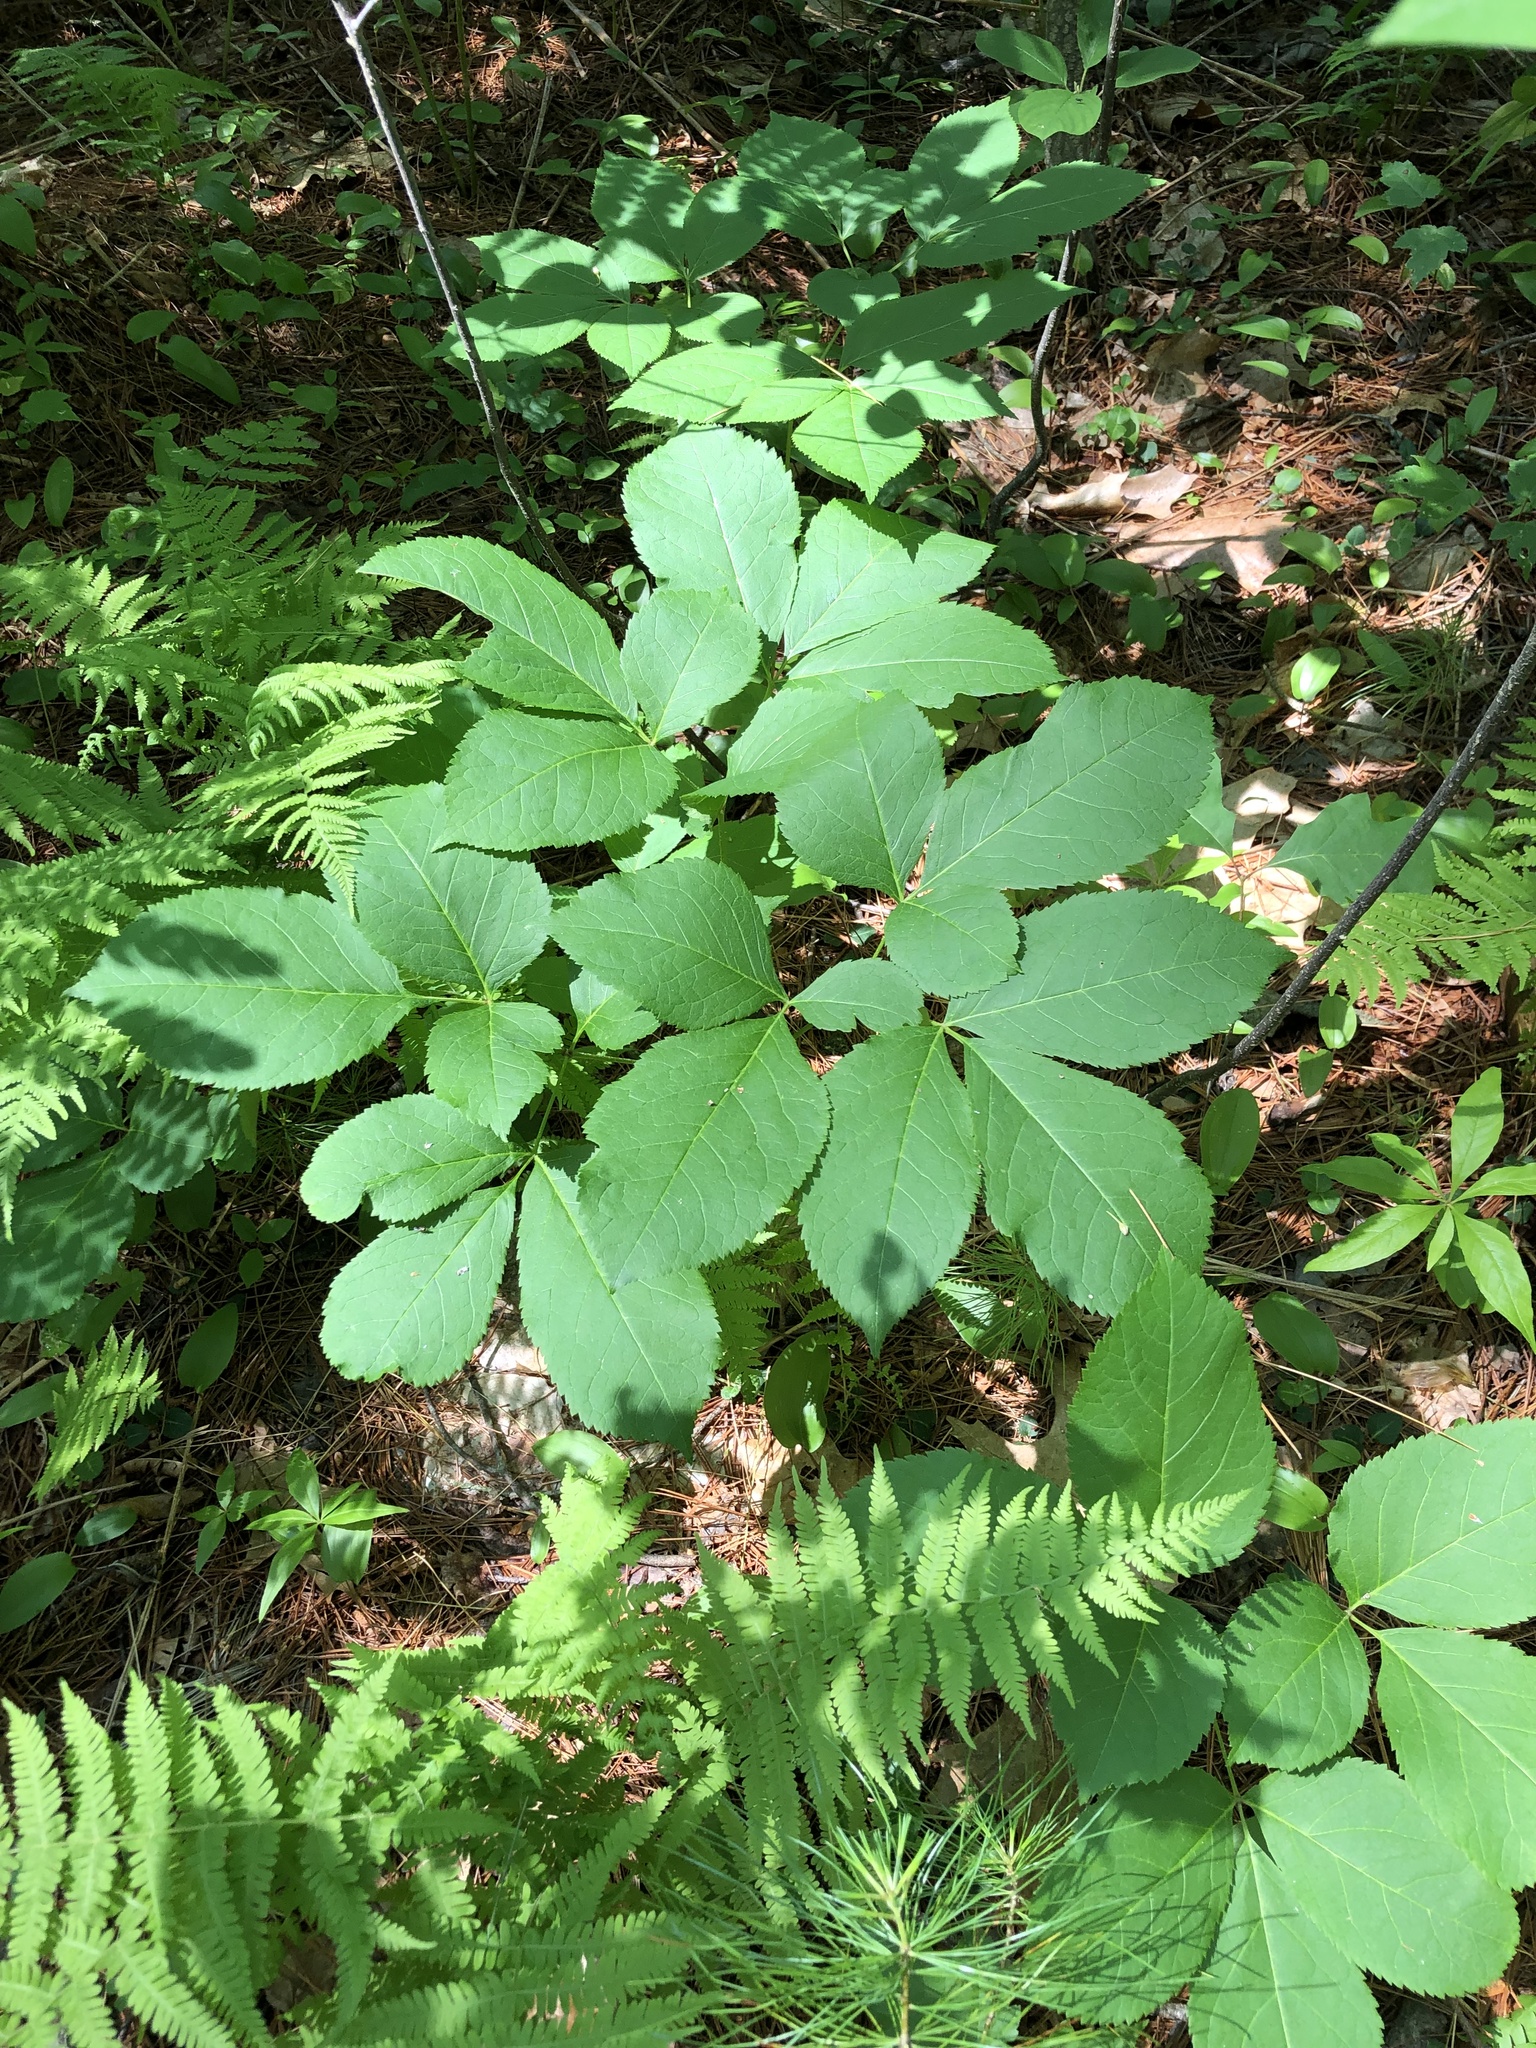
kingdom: Plantae
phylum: Tracheophyta
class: Magnoliopsida
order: Apiales
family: Araliaceae
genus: Aralia
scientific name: Aralia nudicaulis
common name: Wild sarsaparilla
